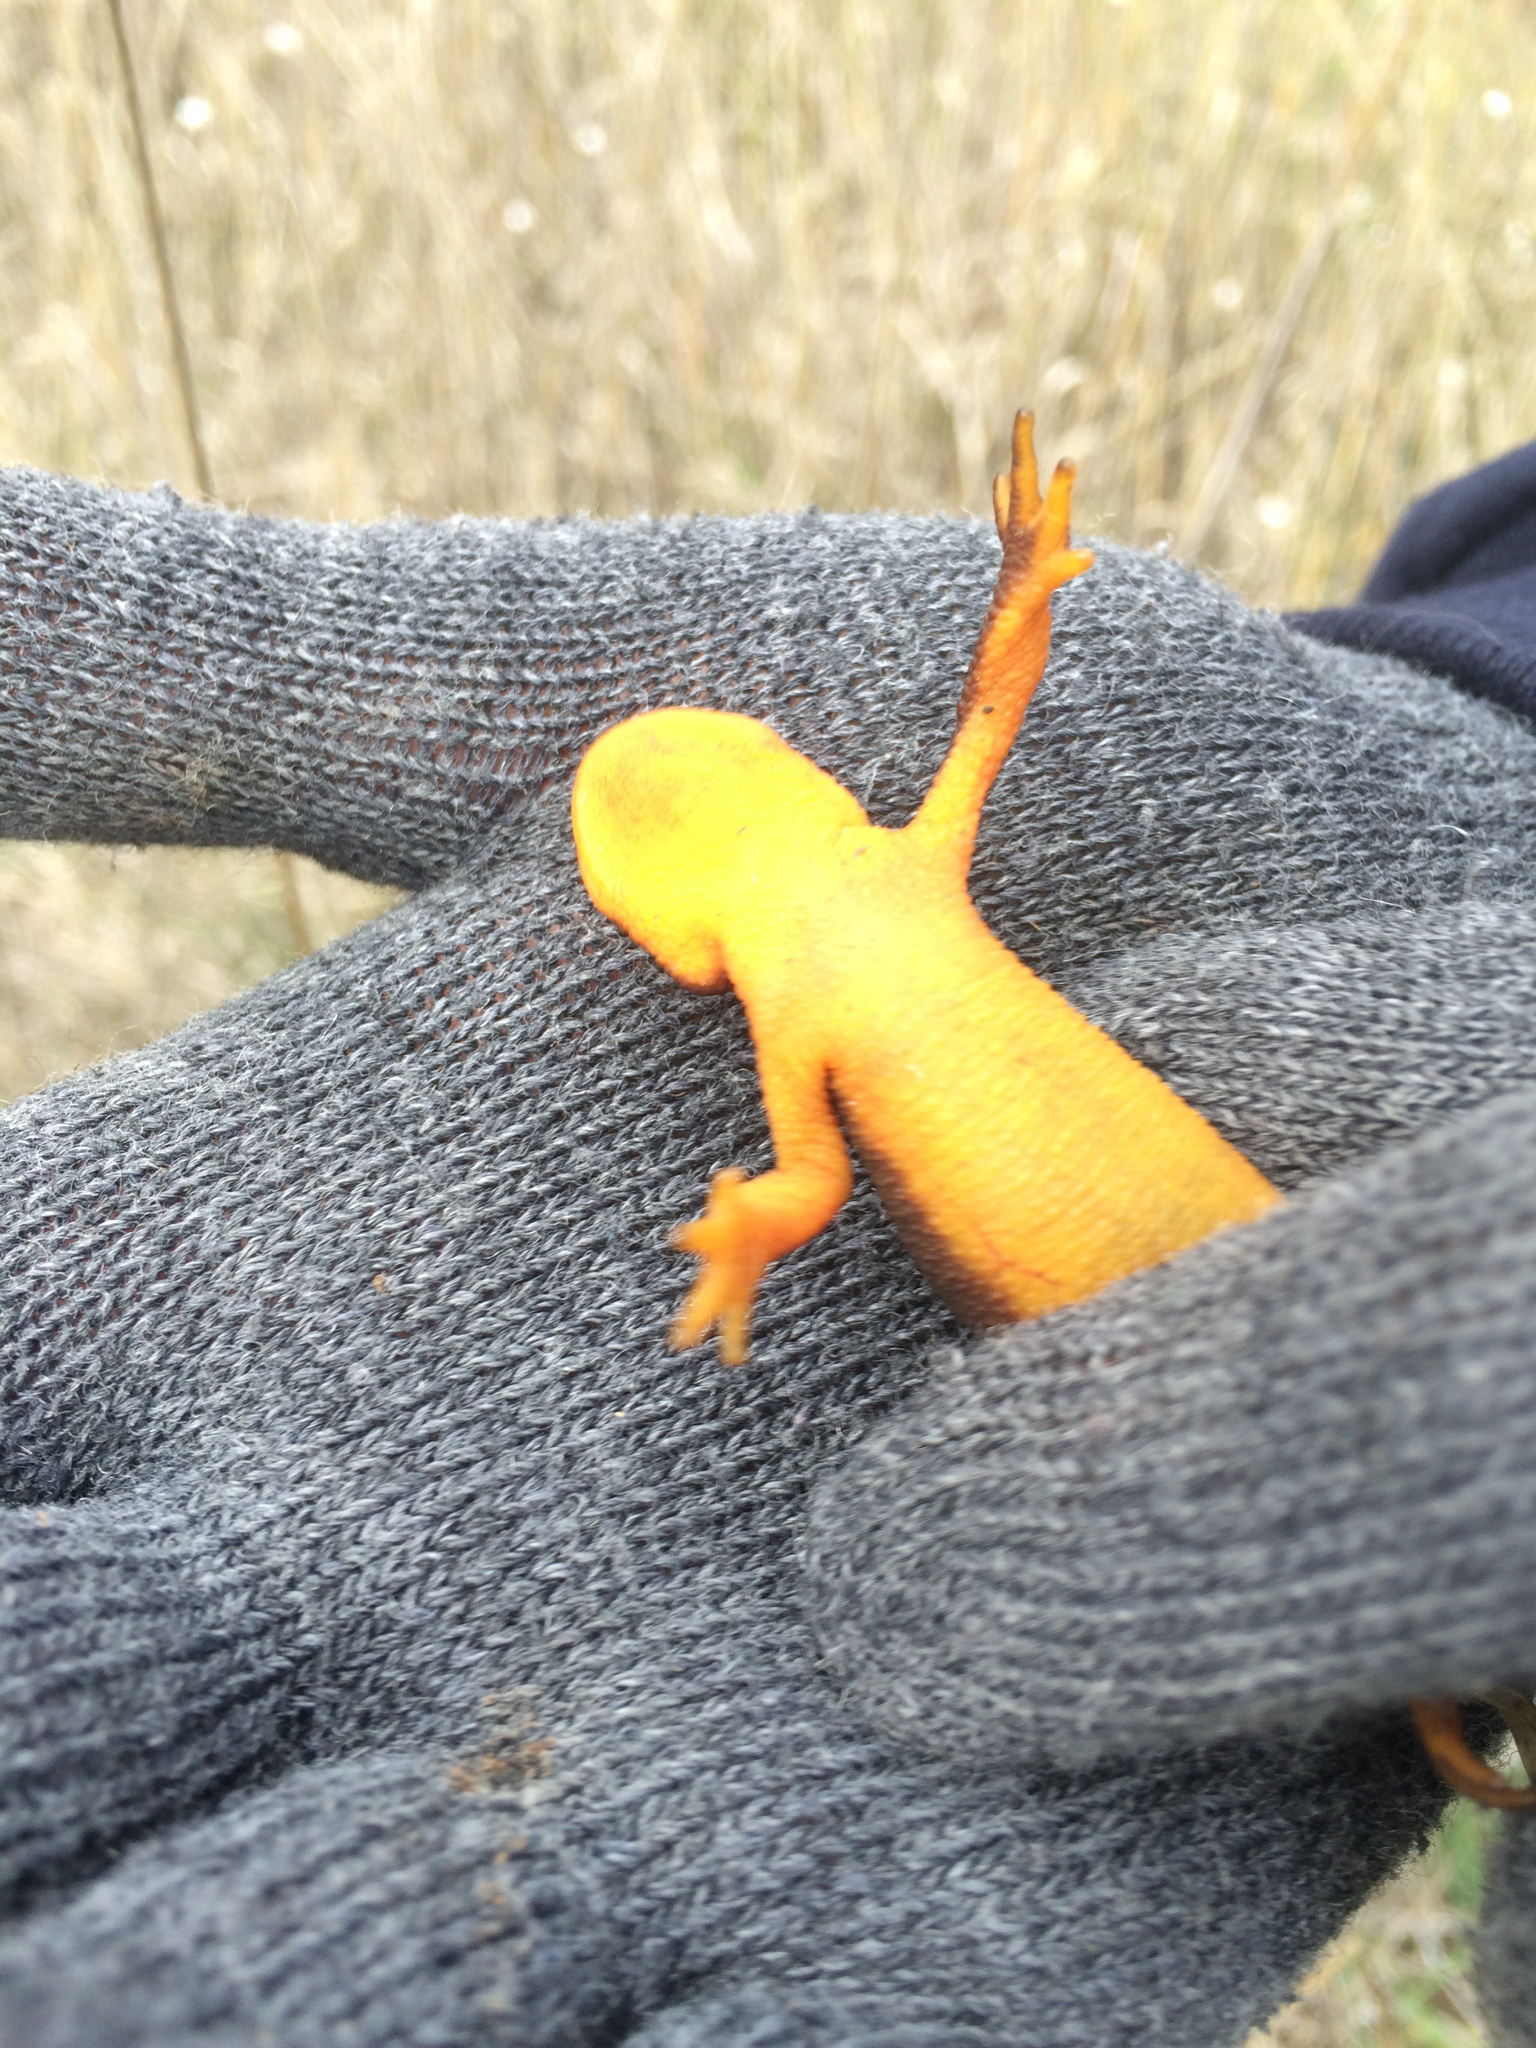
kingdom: Animalia
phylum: Chordata
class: Amphibia
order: Caudata
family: Salamandridae
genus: Taricha
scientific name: Taricha torosa
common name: California newt
